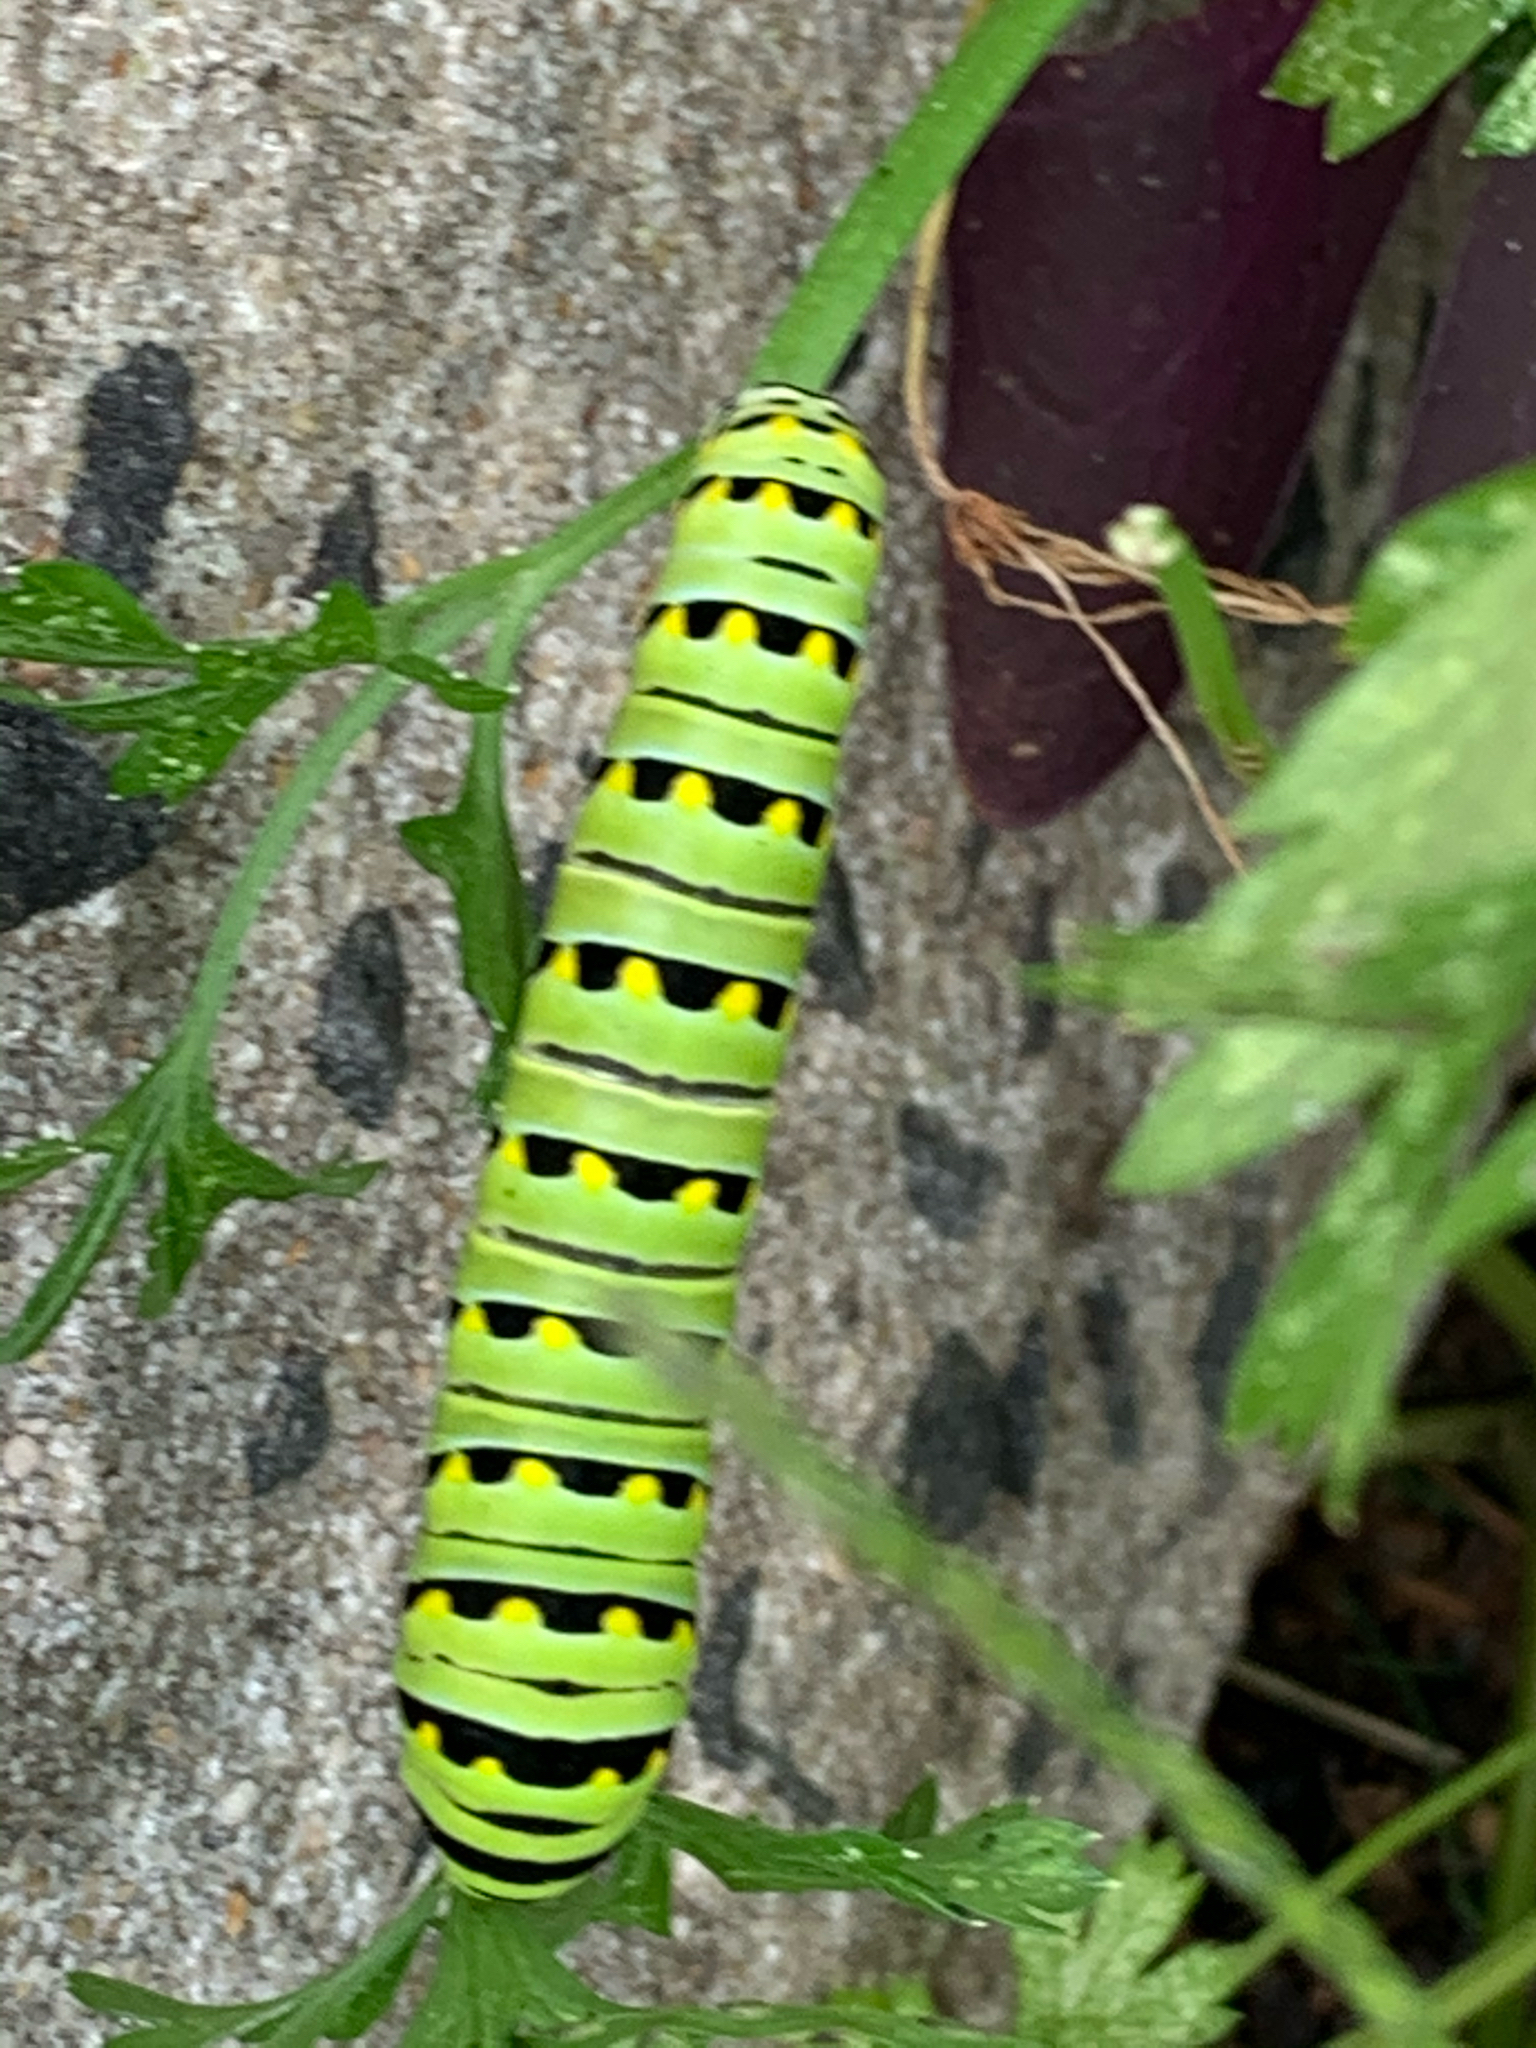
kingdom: Animalia
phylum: Arthropoda
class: Insecta
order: Lepidoptera
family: Papilionidae
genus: Papilio
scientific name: Papilio polyxenes
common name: Black swallowtail
